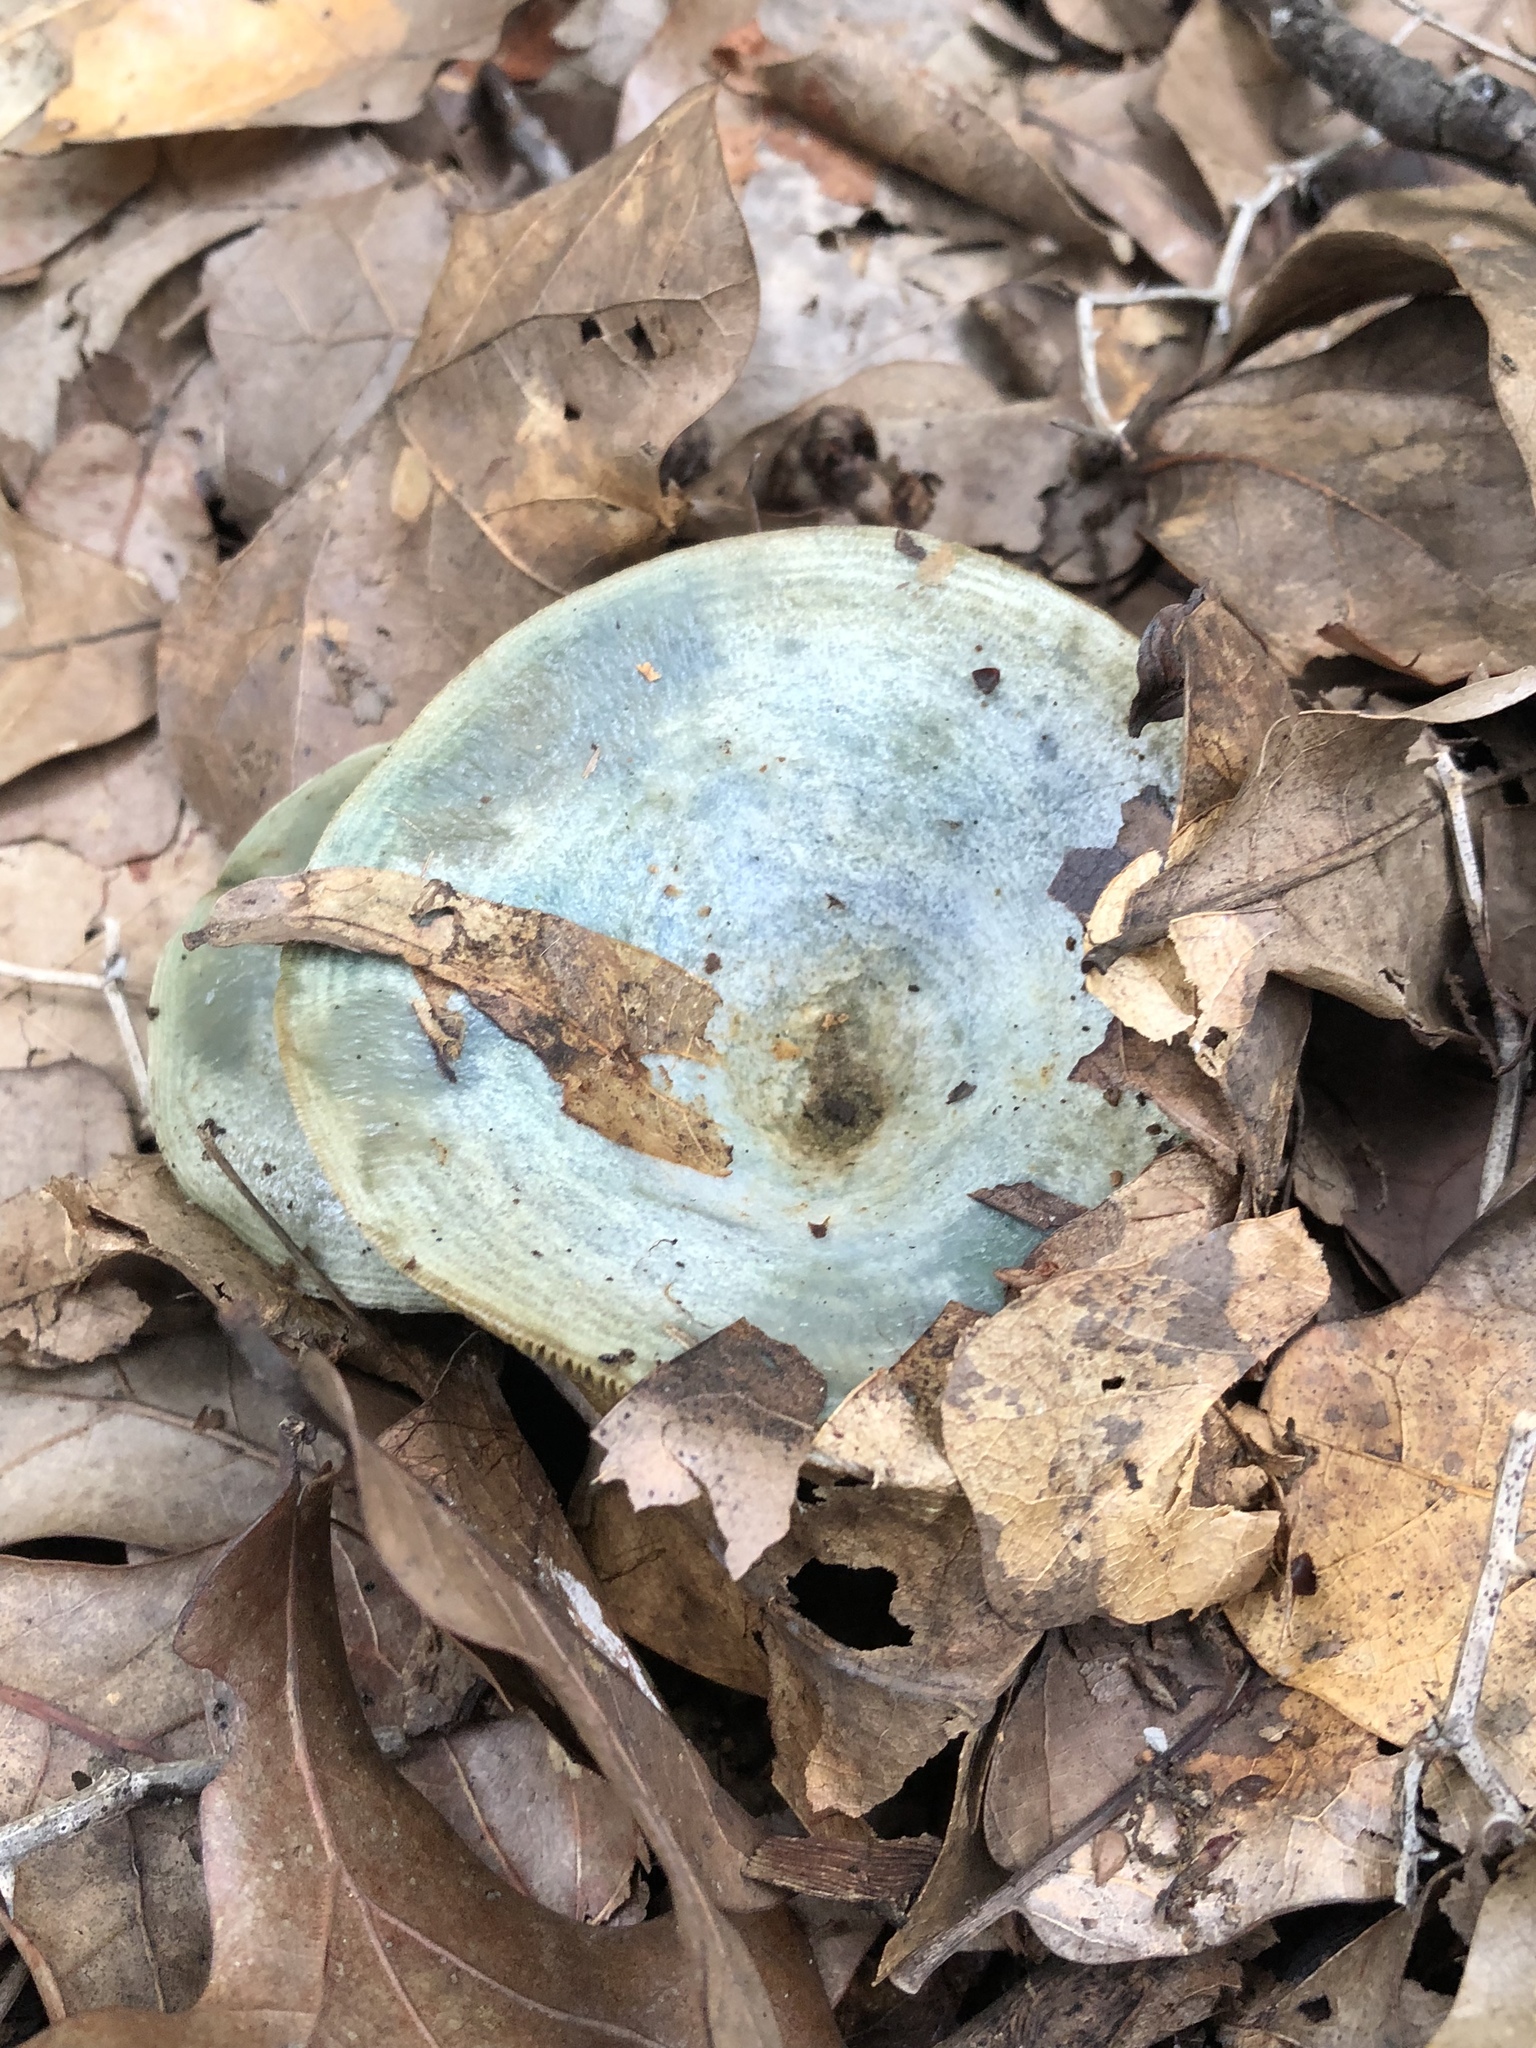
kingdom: Fungi
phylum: Basidiomycota
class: Agaricomycetes
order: Russulales
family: Russulaceae
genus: Lactarius
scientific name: Lactarius indigo
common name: Indigo milk cap
